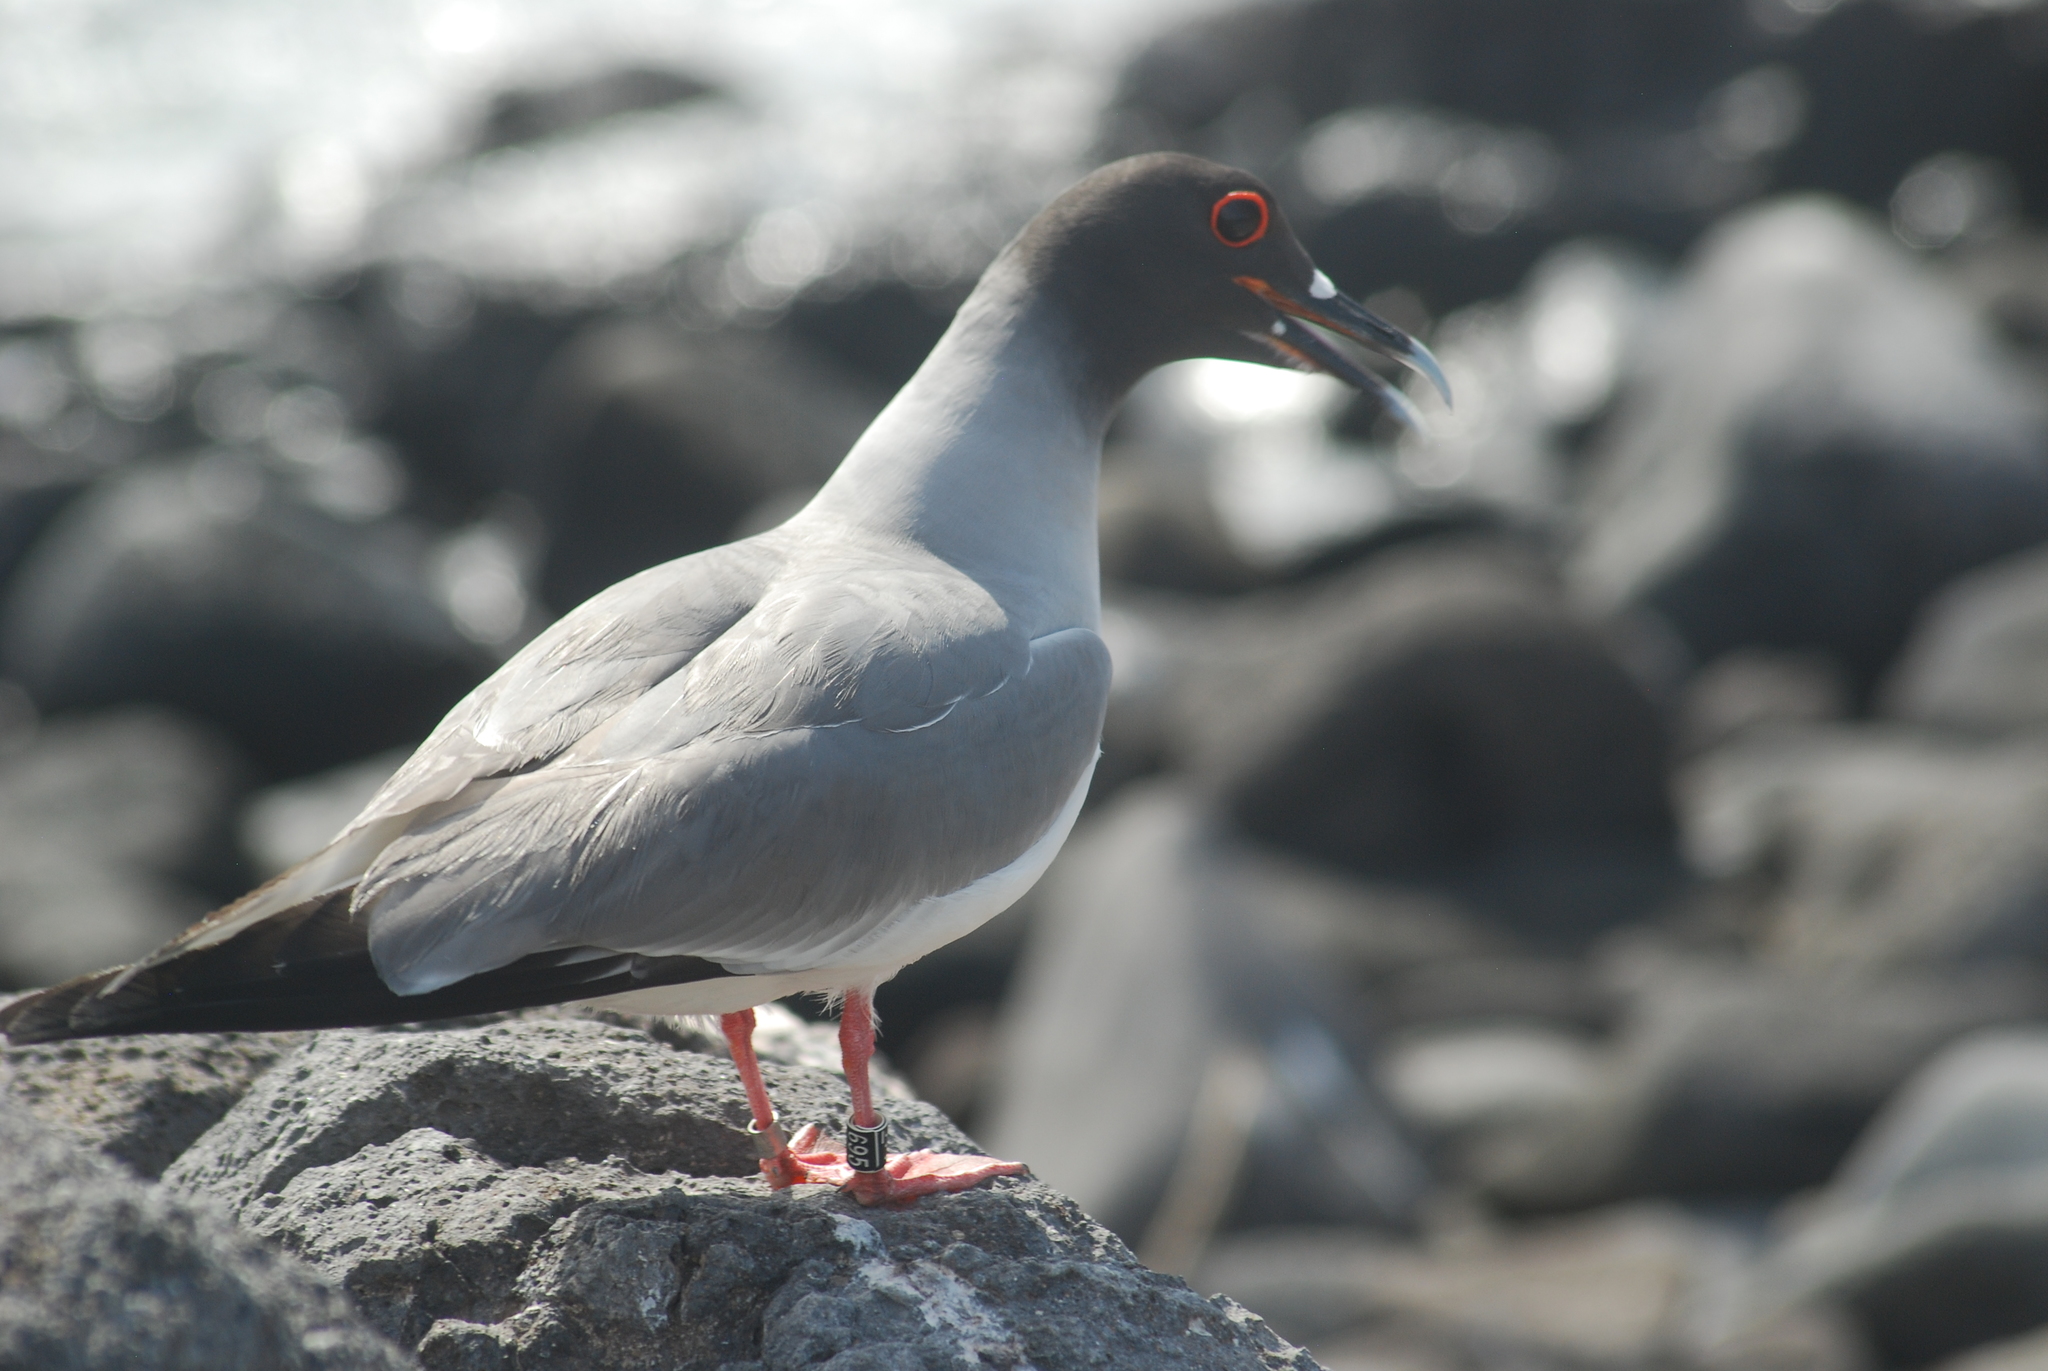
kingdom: Animalia
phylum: Chordata
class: Aves
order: Charadriiformes
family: Laridae
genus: Creagrus
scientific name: Creagrus furcatus
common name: Swallow-tailed gull
